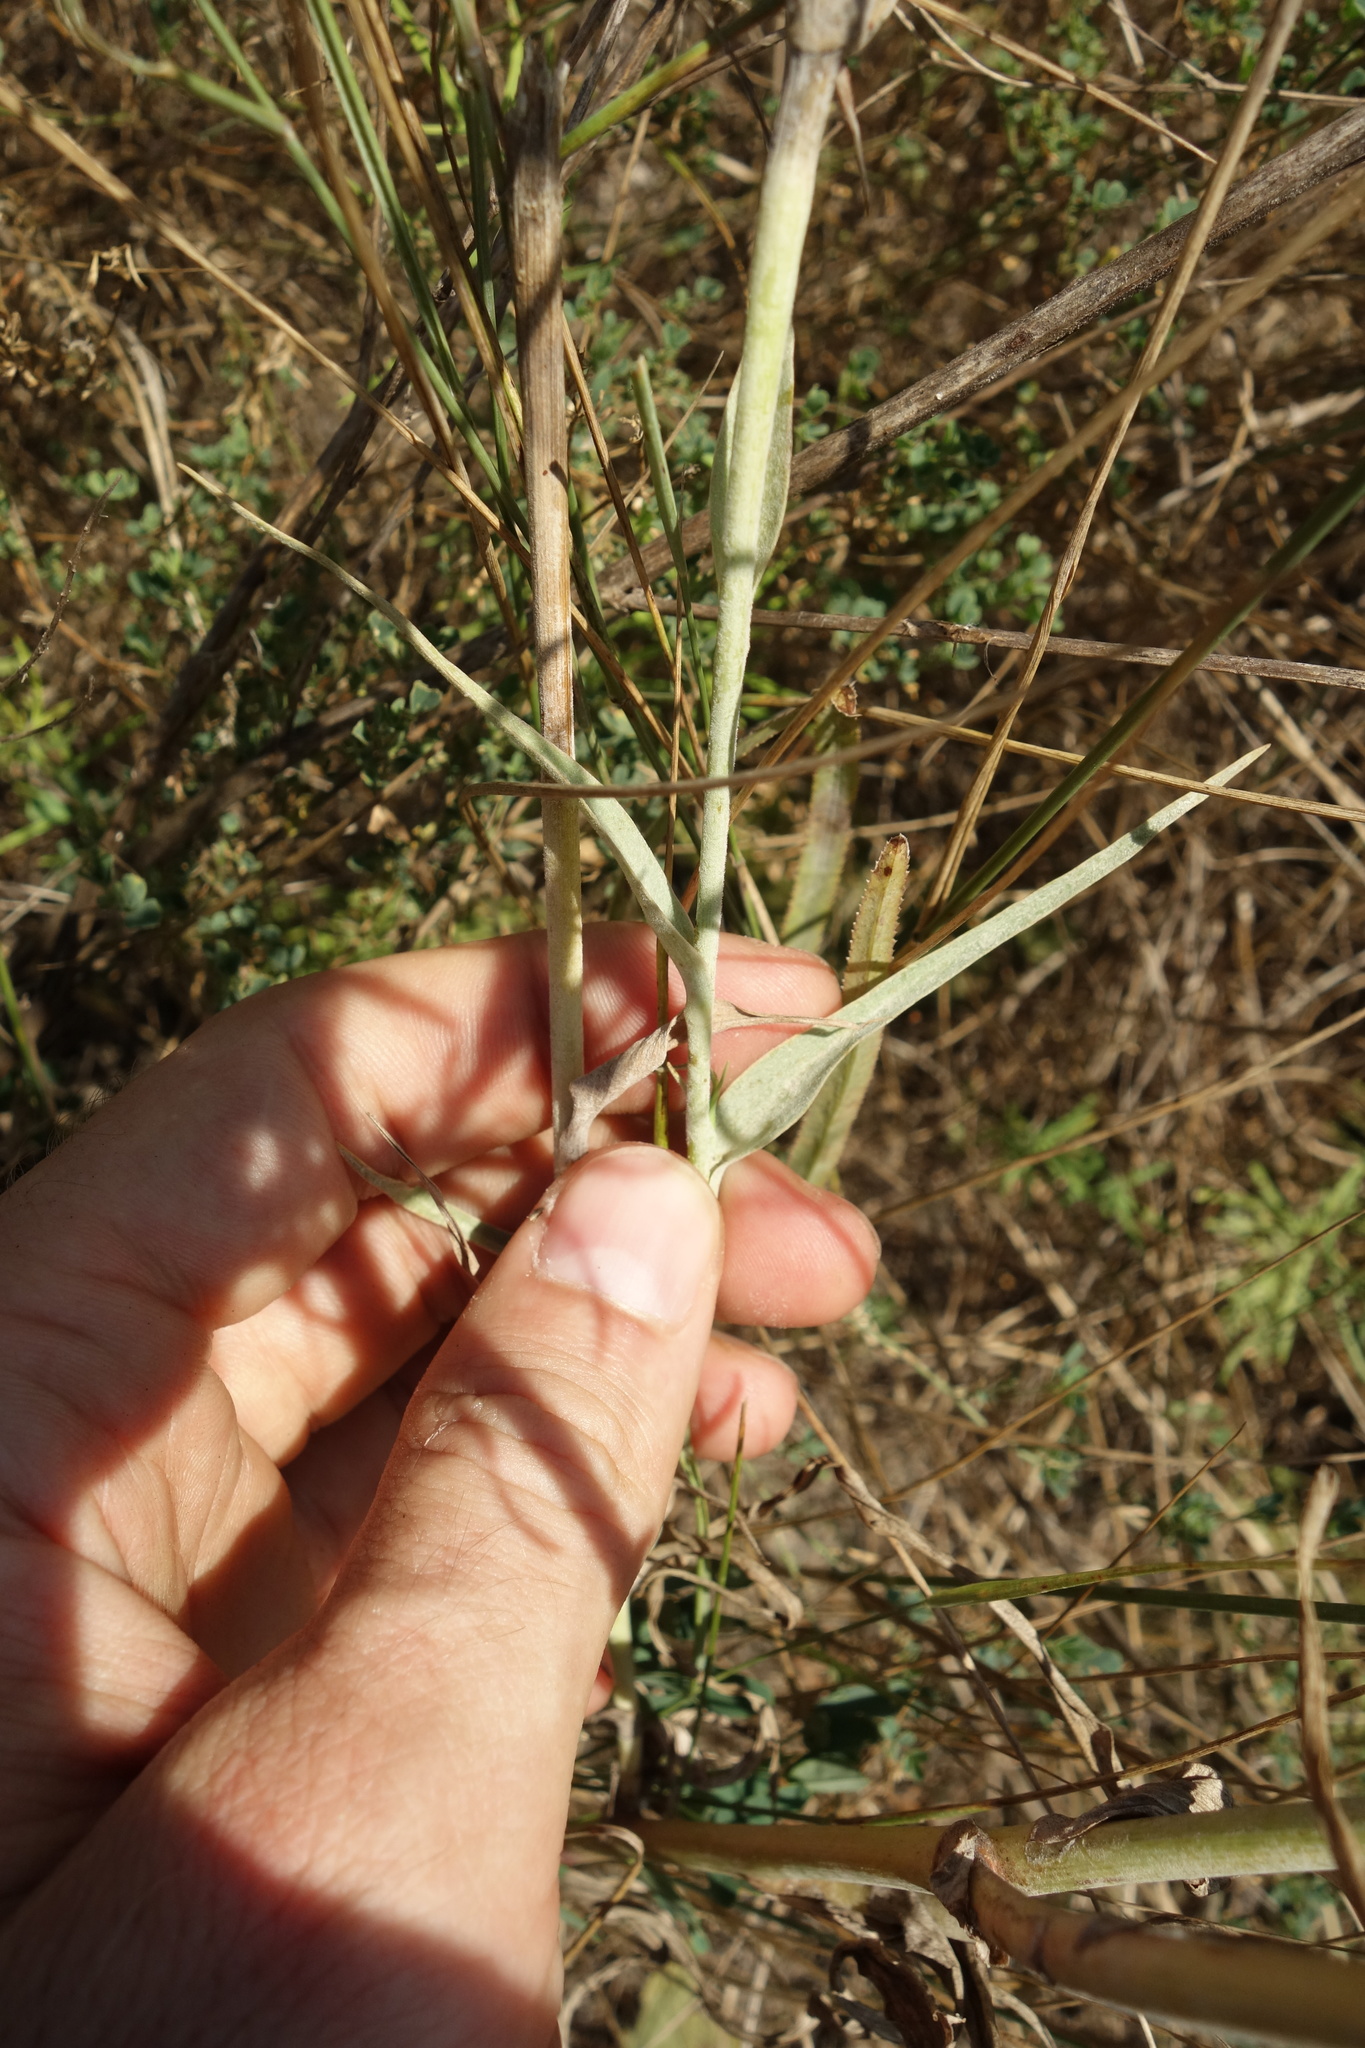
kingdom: Plantae
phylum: Tracheophyta
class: Magnoliopsida
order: Asterales
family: Asteraceae
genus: Tragopogon
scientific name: Tragopogon dubius
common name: Yellow salsify
